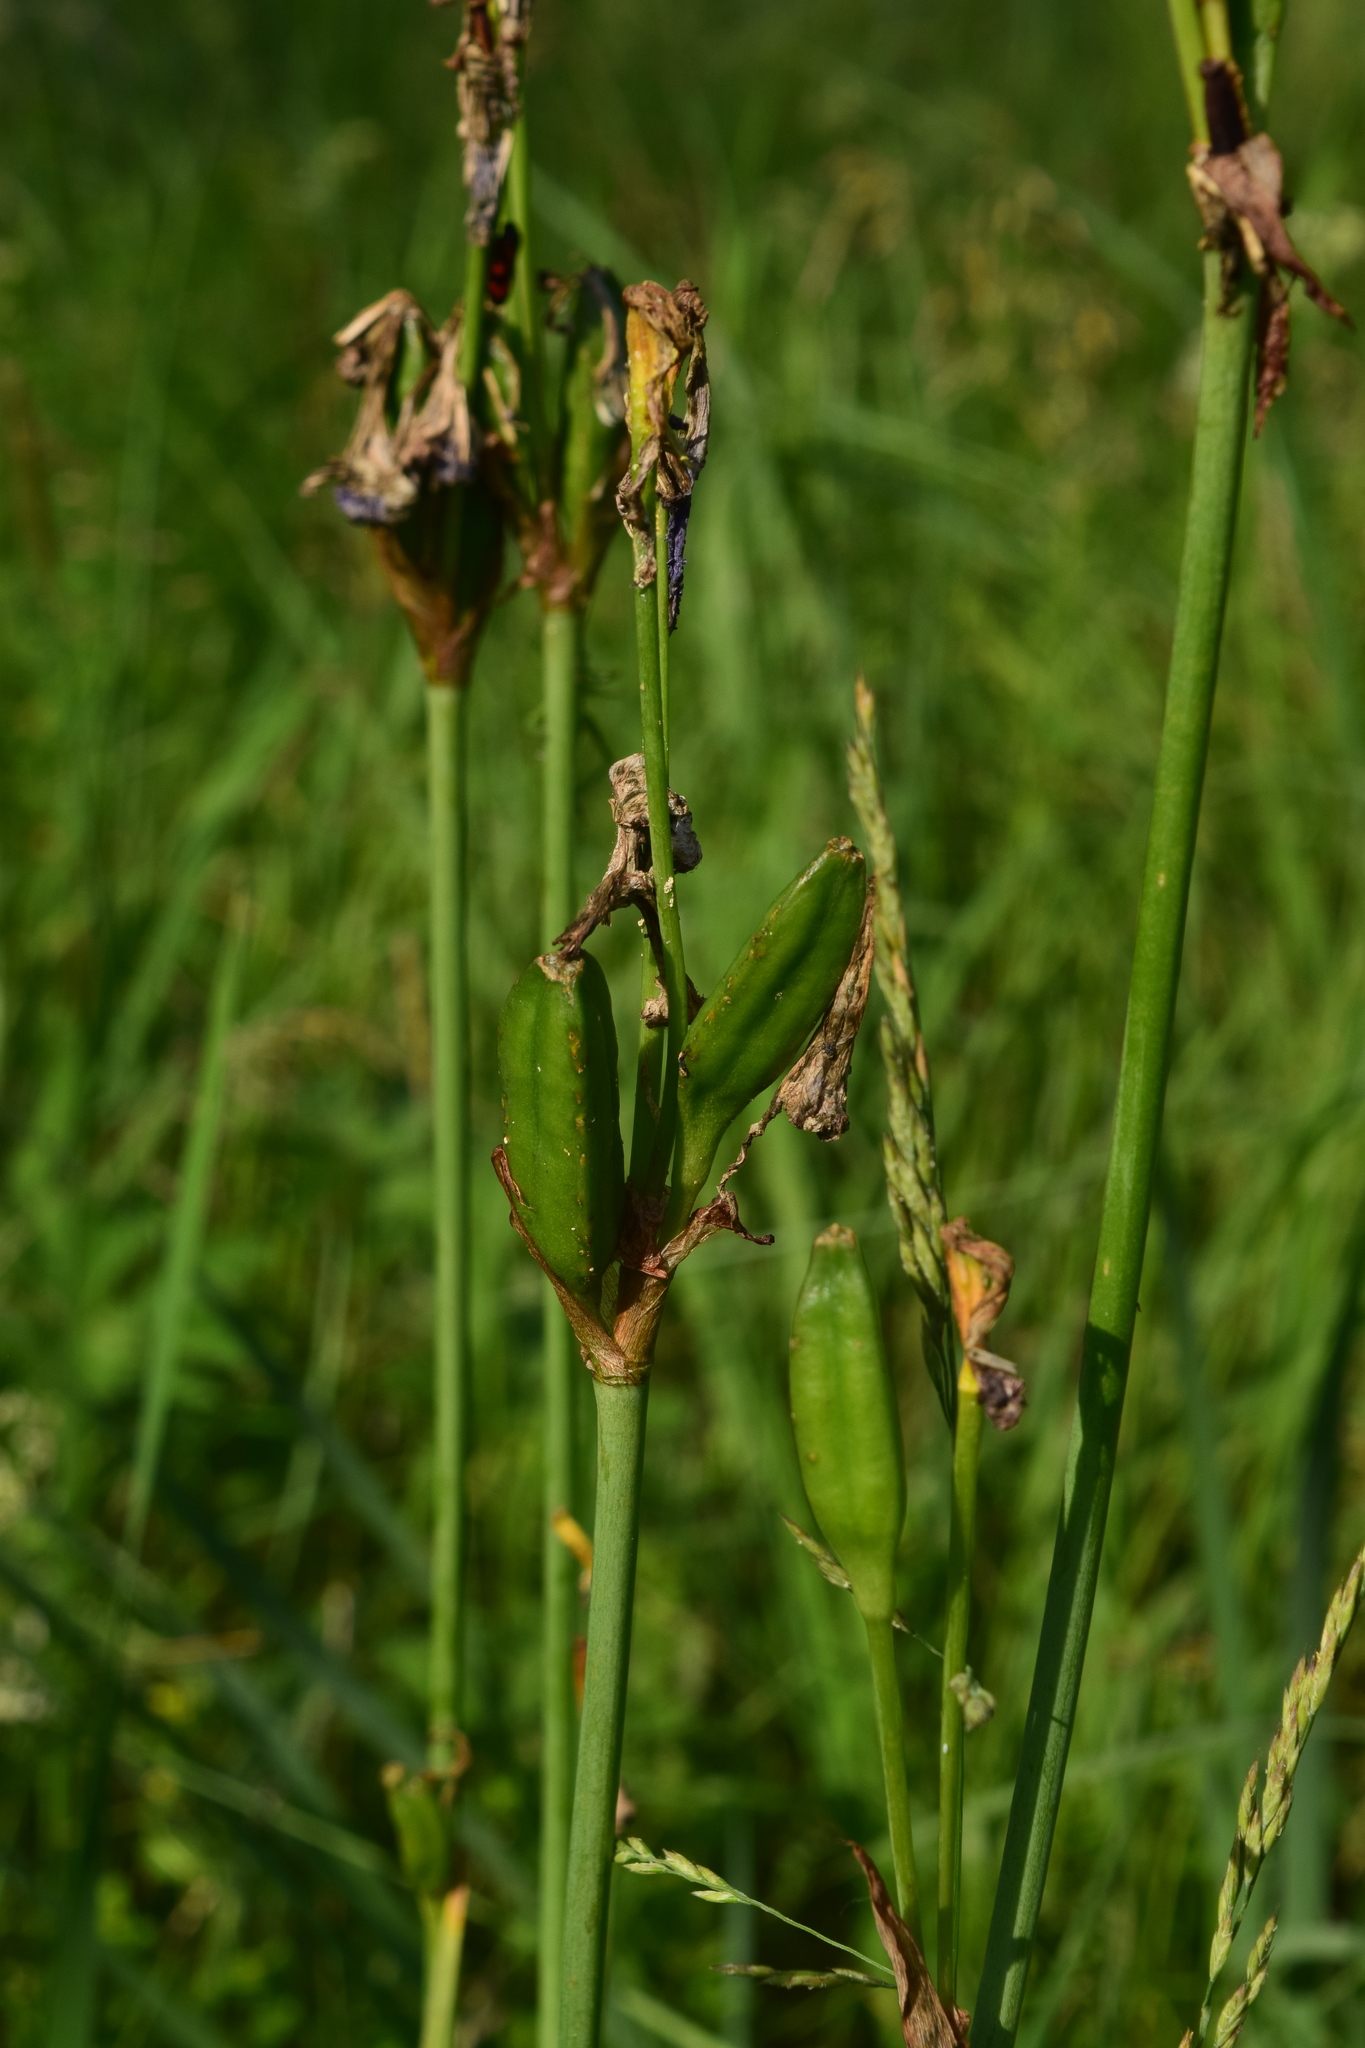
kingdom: Plantae
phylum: Tracheophyta
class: Liliopsida
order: Asparagales
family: Iridaceae
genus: Iris
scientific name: Iris sibirica
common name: Siberian iris
